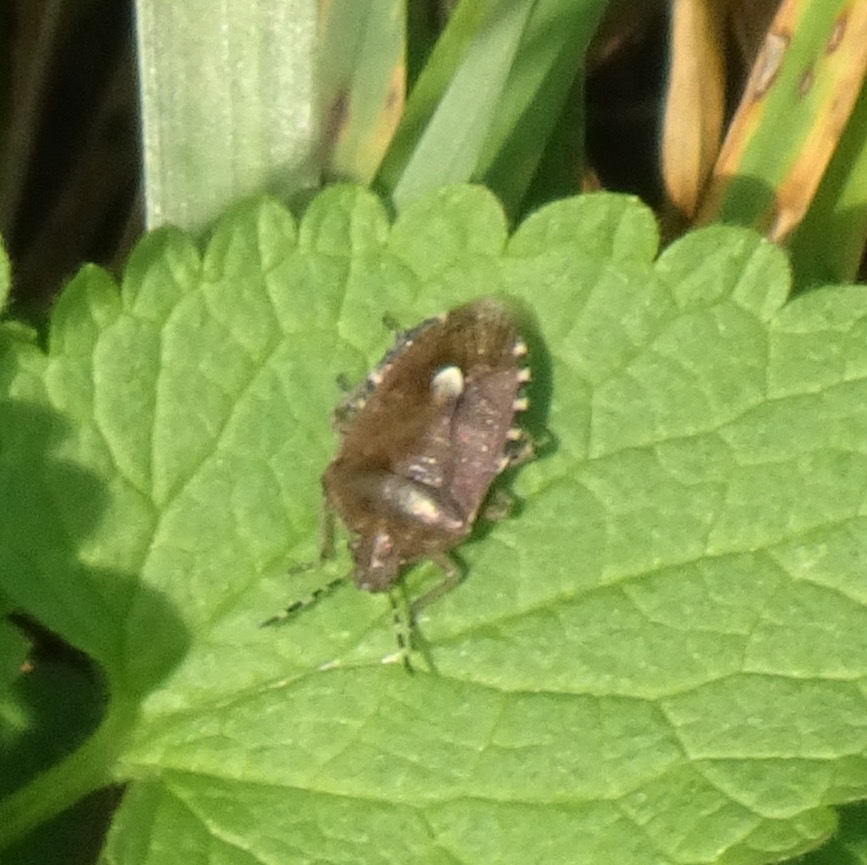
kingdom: Animalia
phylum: Arthropoda
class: Insecta
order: Hemiptera
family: Pentatomidae
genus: Dolycoris
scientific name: Dolycoris baccarum
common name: Sloe bug
